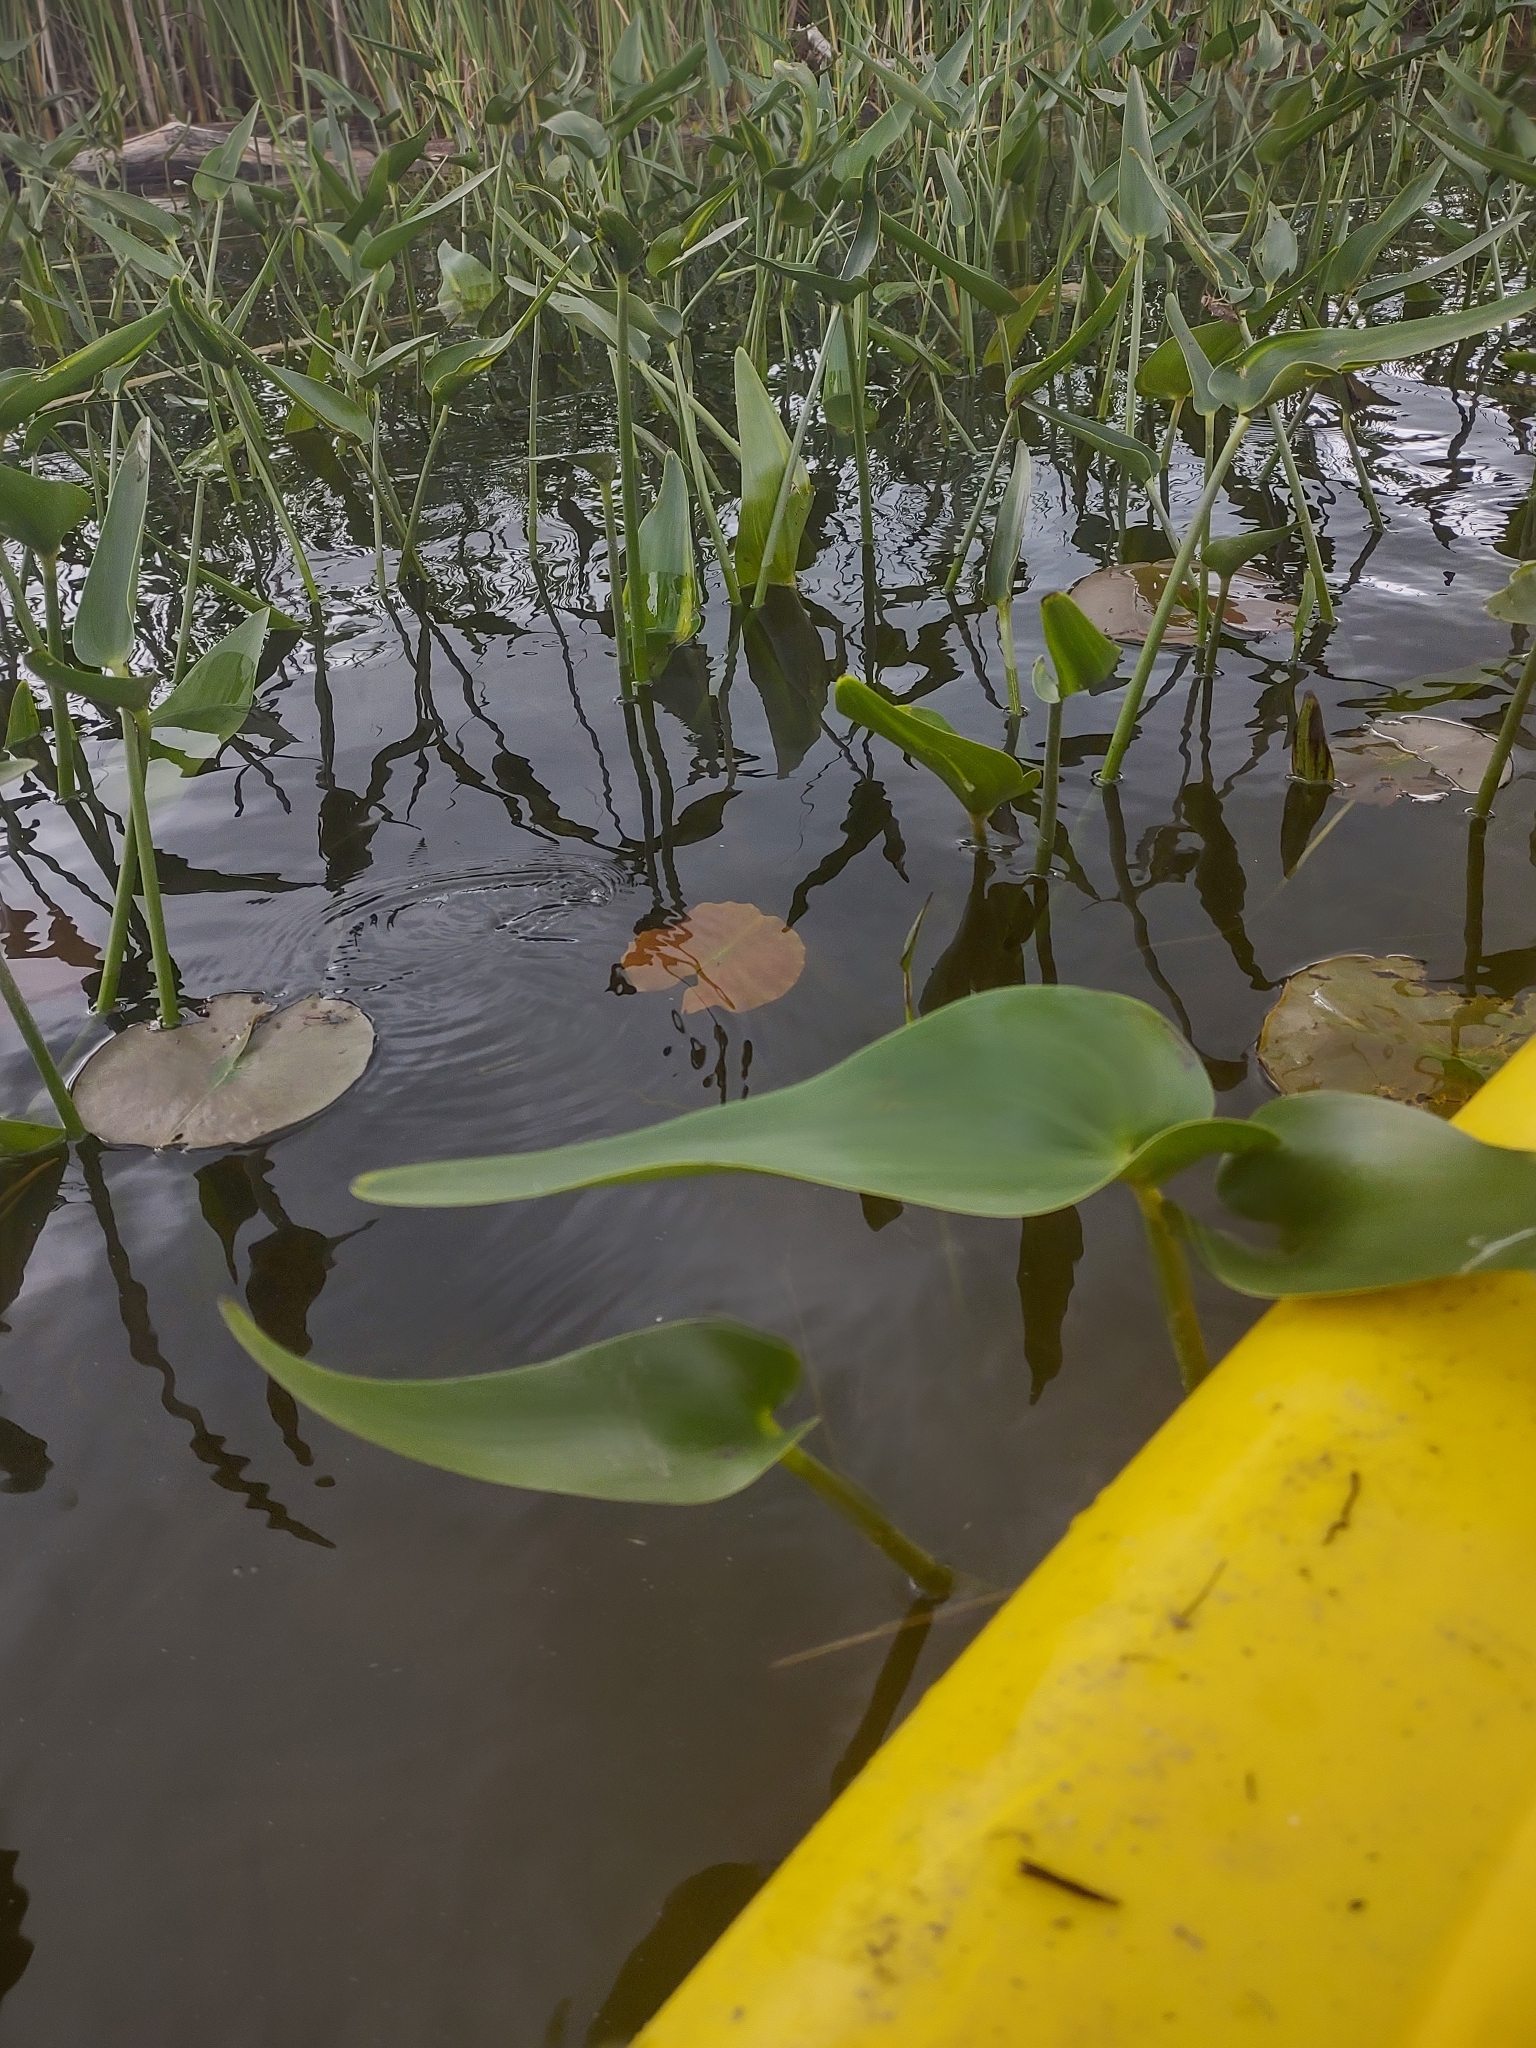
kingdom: Plantae
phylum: Tracheophyta
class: Liliopsida
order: Commelinales
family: Pontederiaceae
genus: Pontederia
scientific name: Pontederia cordata
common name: Pickerelweed
